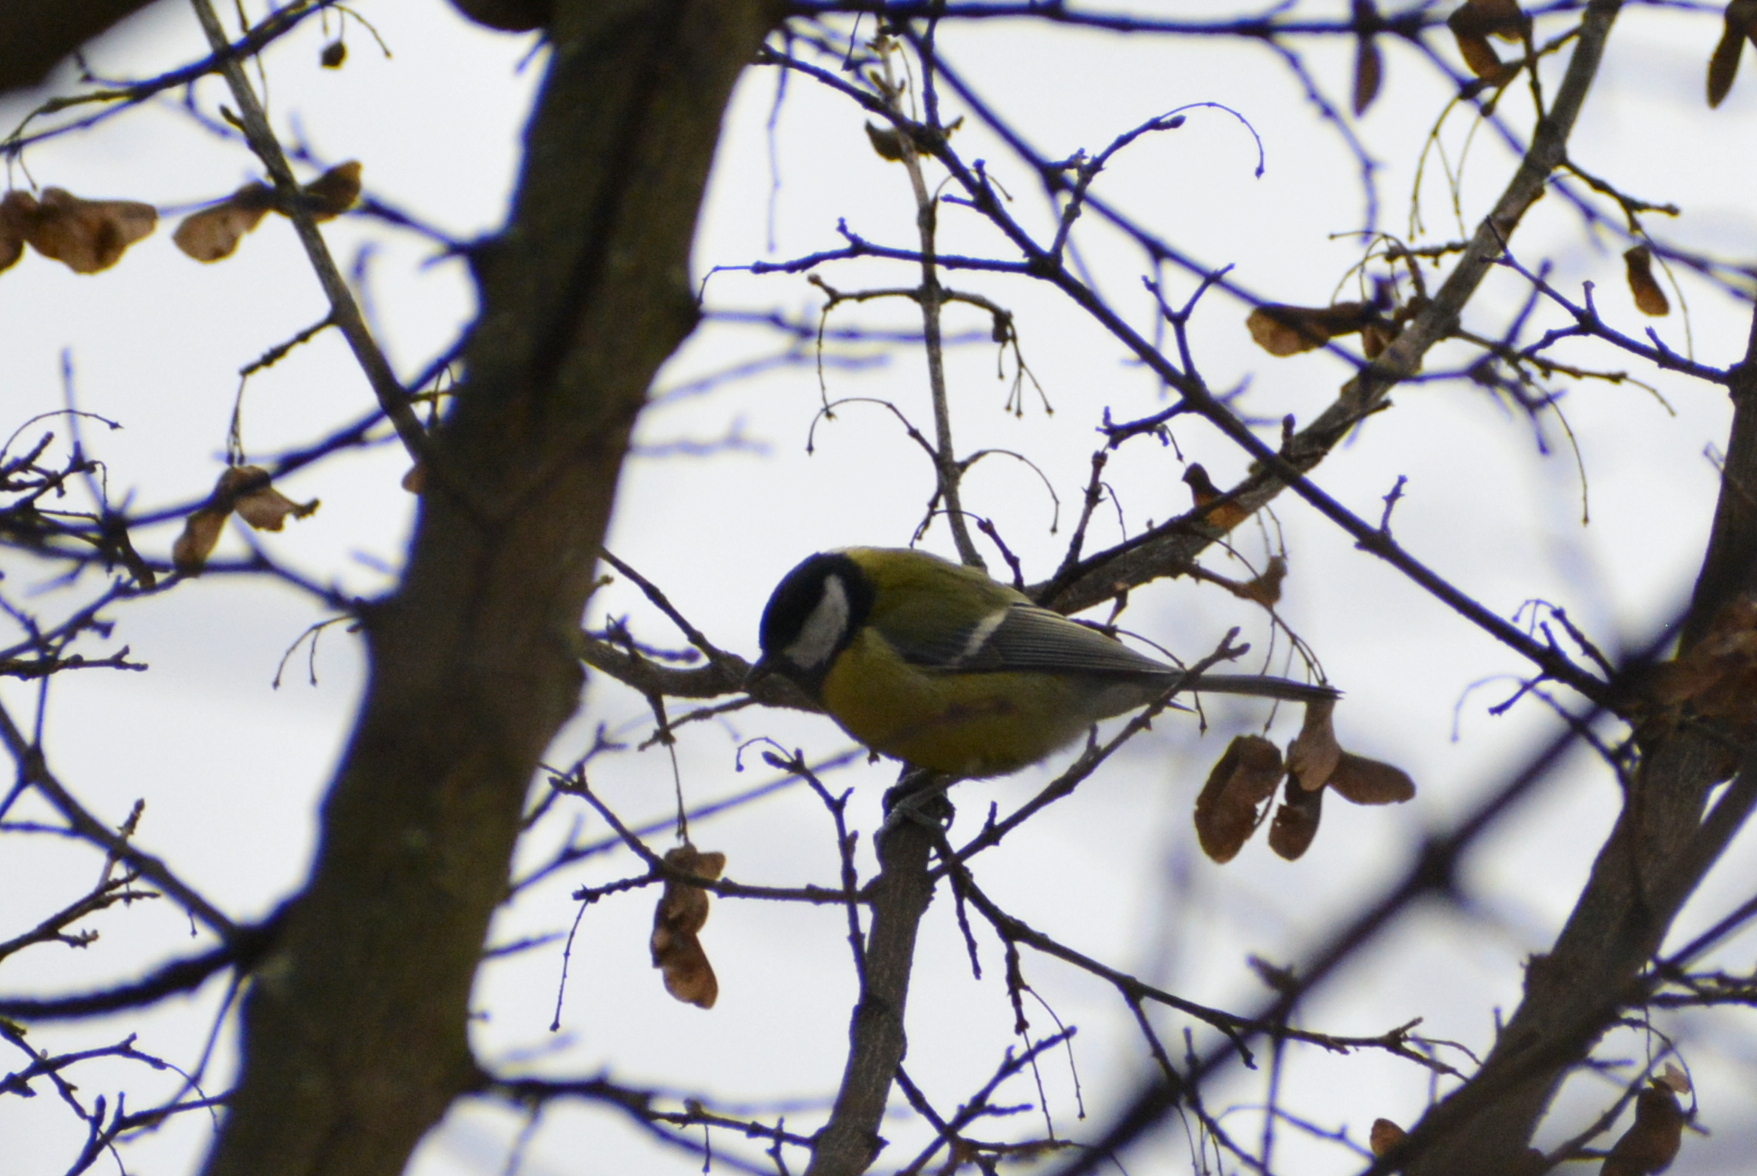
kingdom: Animalia
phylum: Chordata
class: Aves
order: Passeriformes
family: Paridae
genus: Parus
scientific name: Parus major
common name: Great tit
